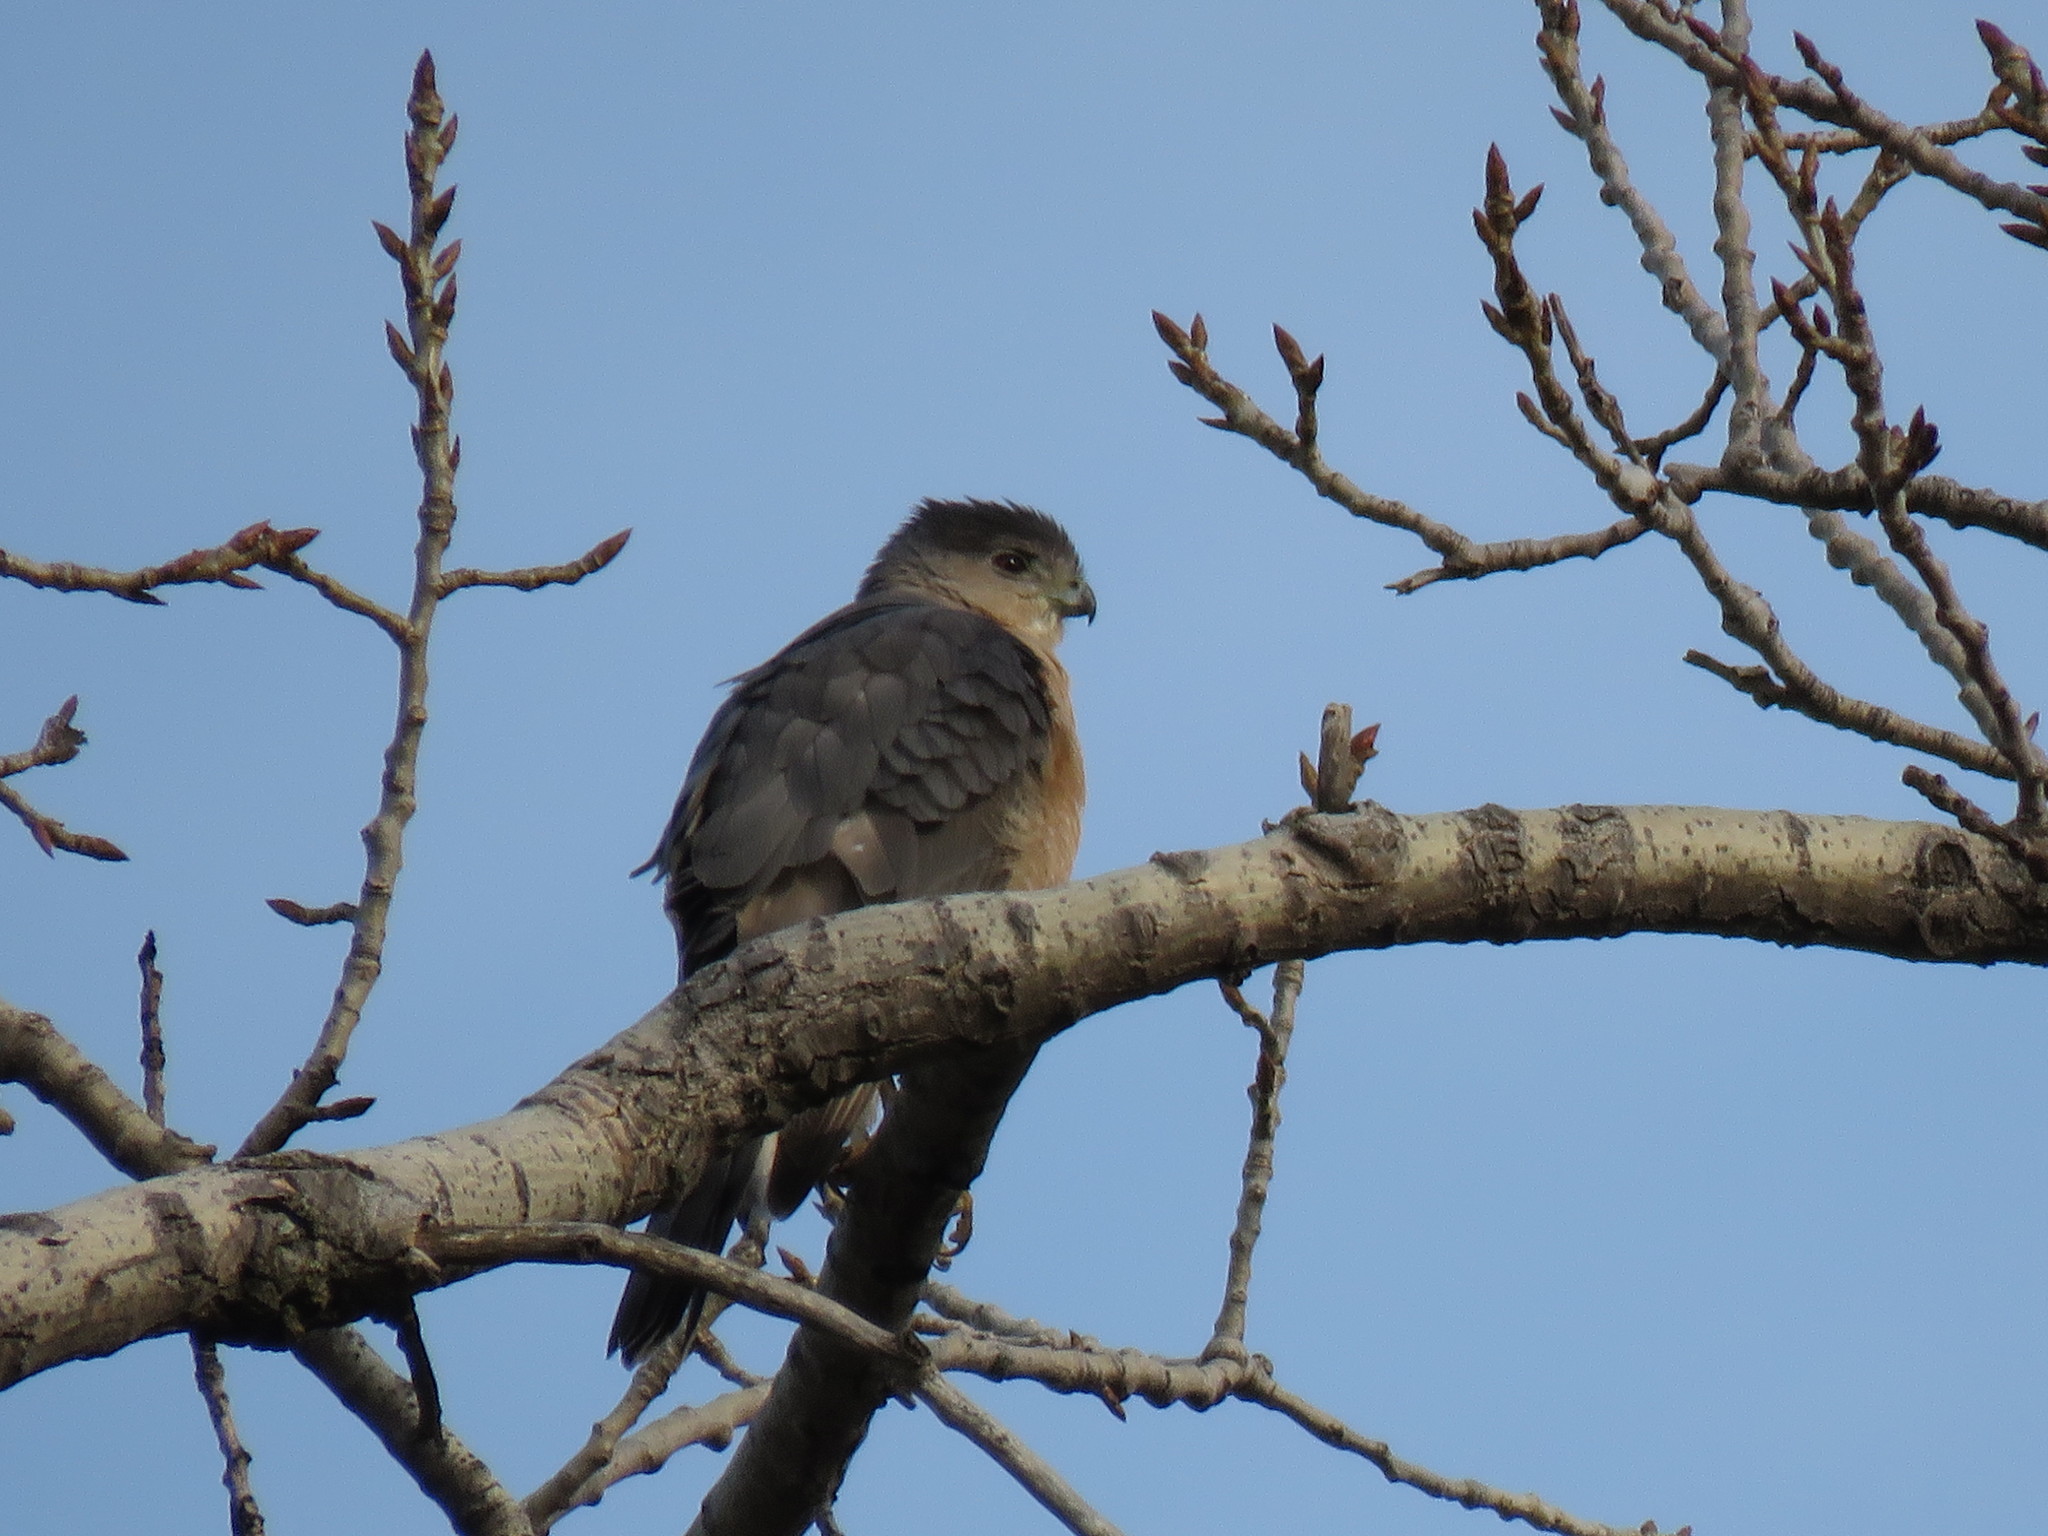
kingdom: Animalia
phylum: Chordata
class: Aves
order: Accipitriformes
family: Accipitridae
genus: Accipiter
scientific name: Accipiter cooperii
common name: Cooper's hawk
